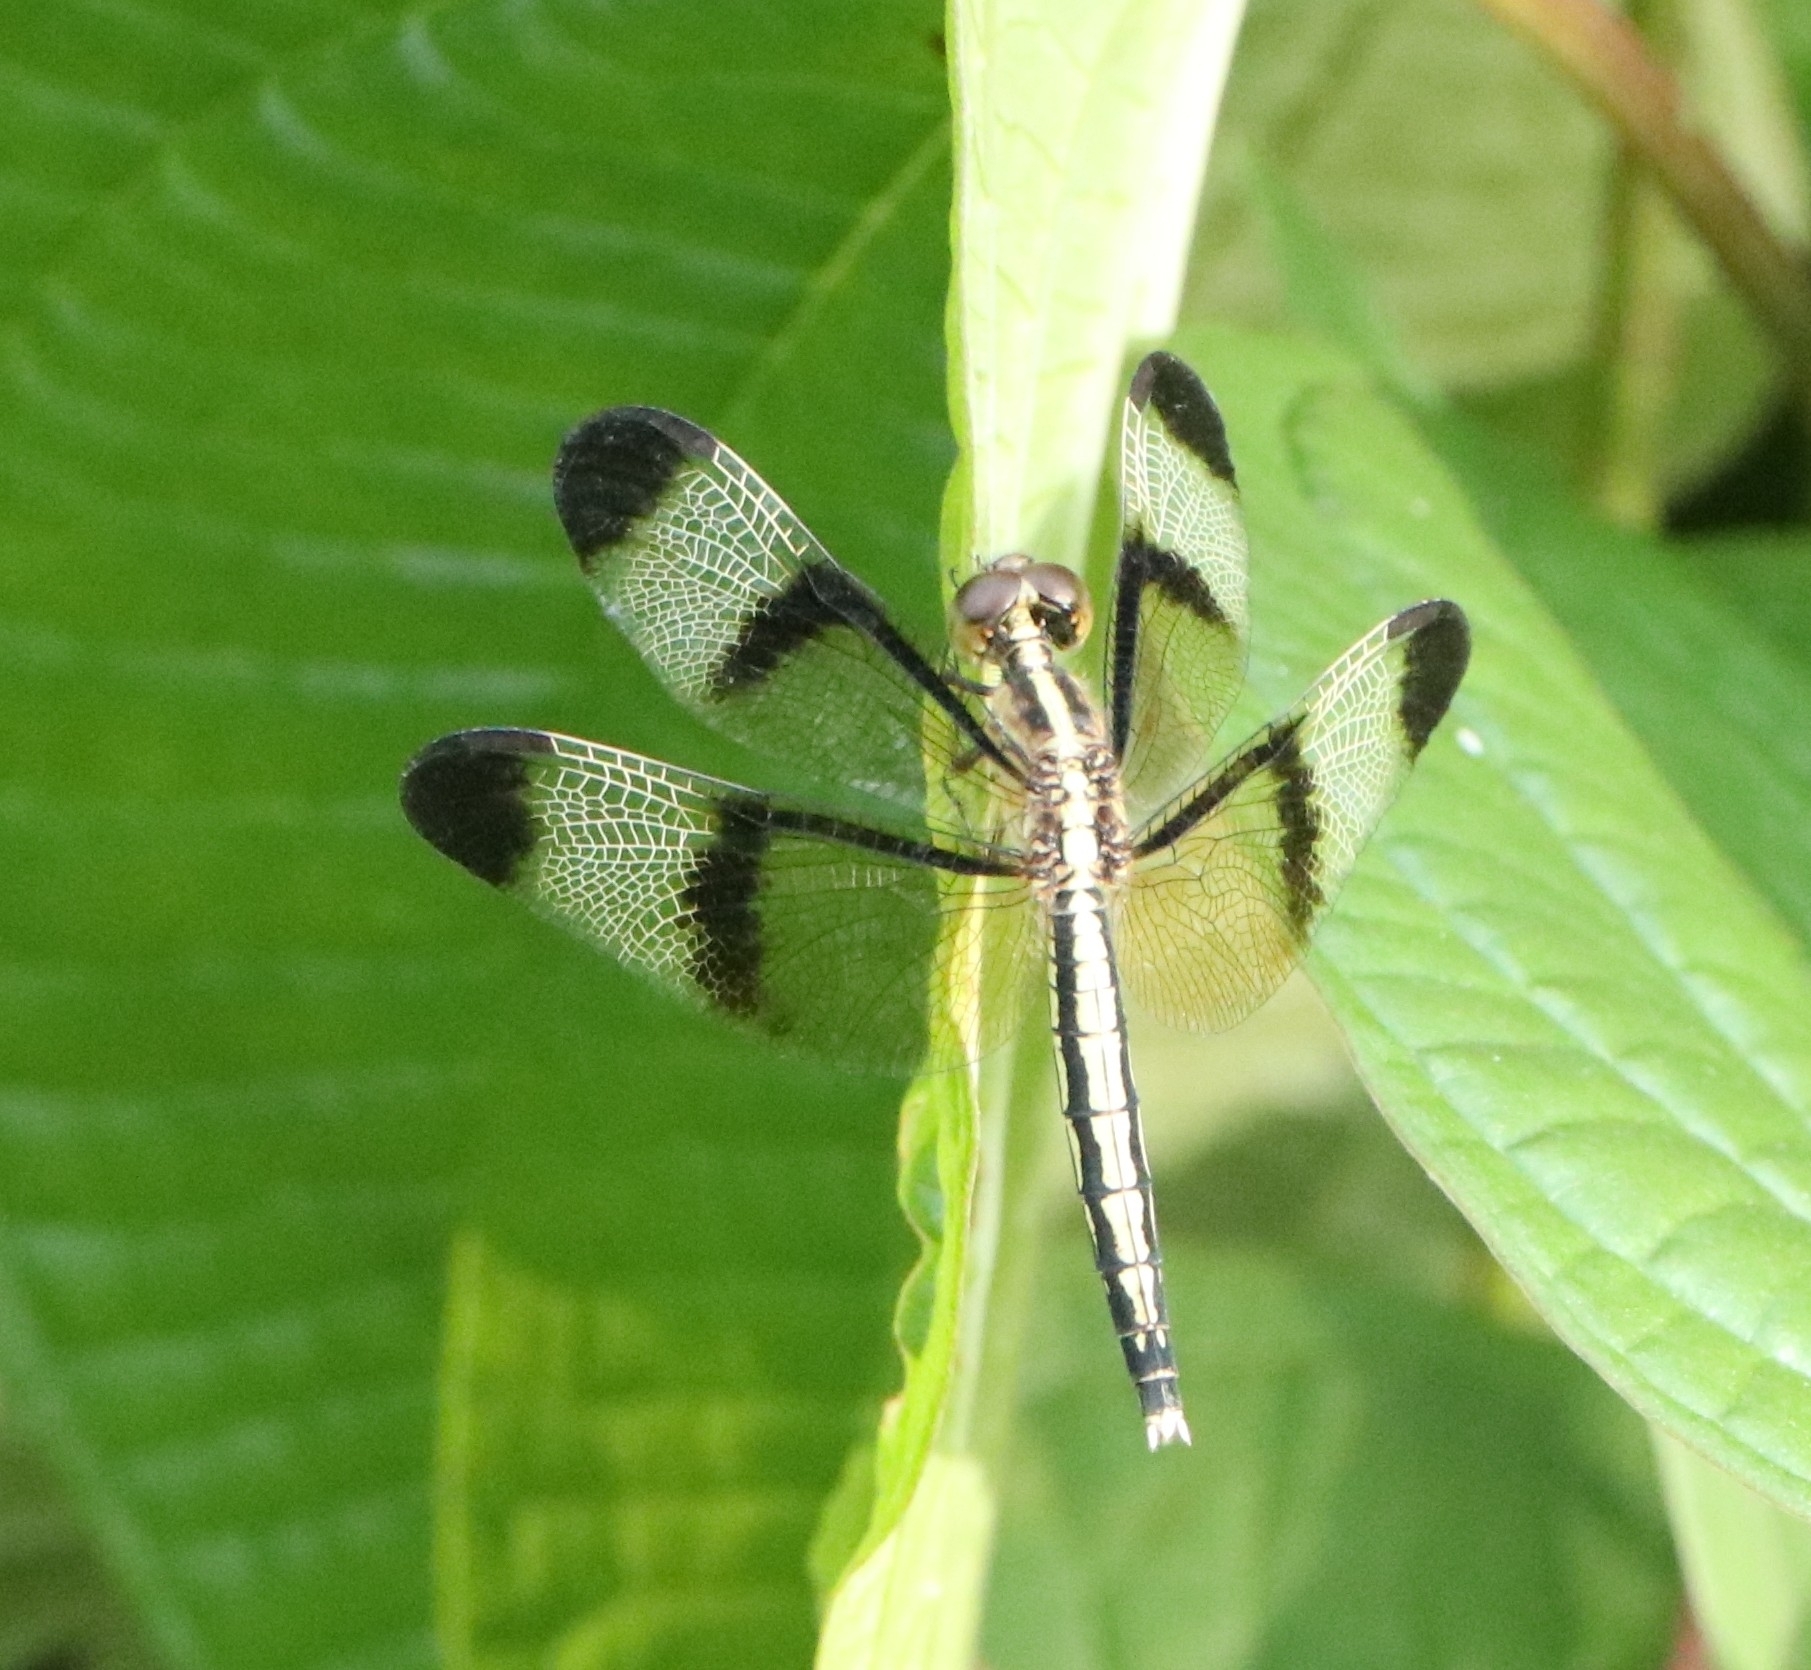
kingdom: Animalia
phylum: Arthropoda
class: Insecta
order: Odonata
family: Libellulidae
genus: Neurothemis
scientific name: Neurothemis tullia
